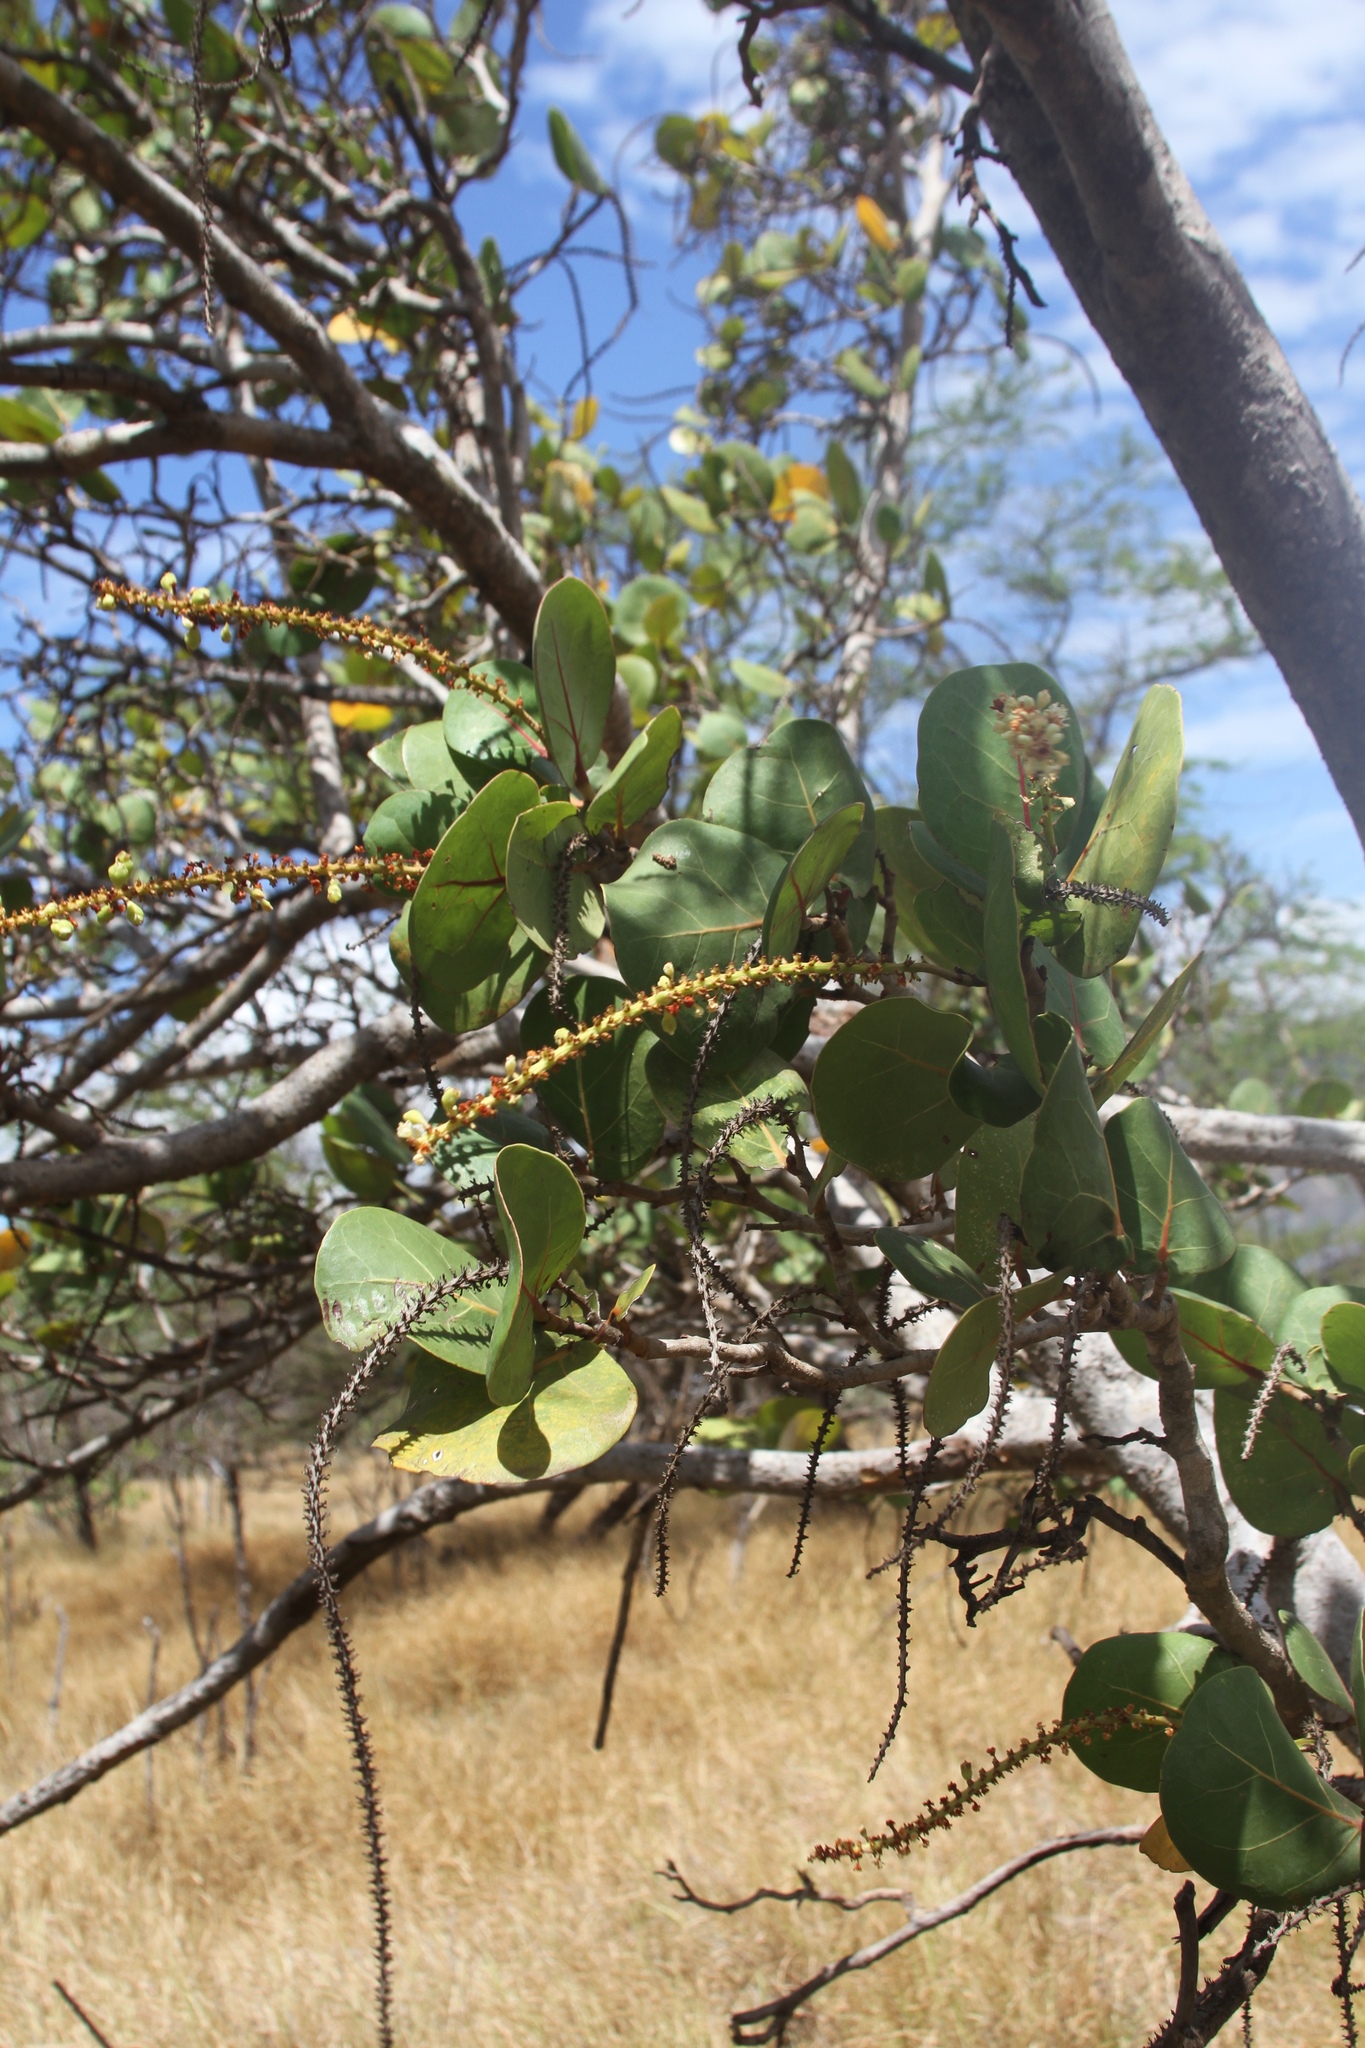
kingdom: Plantae
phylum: Tracheophyta
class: Magnoliopsida
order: Caryophyllales
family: Polygonaceae
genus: Coccoloba
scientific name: Coccoloba uvifera
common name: Seagrape
